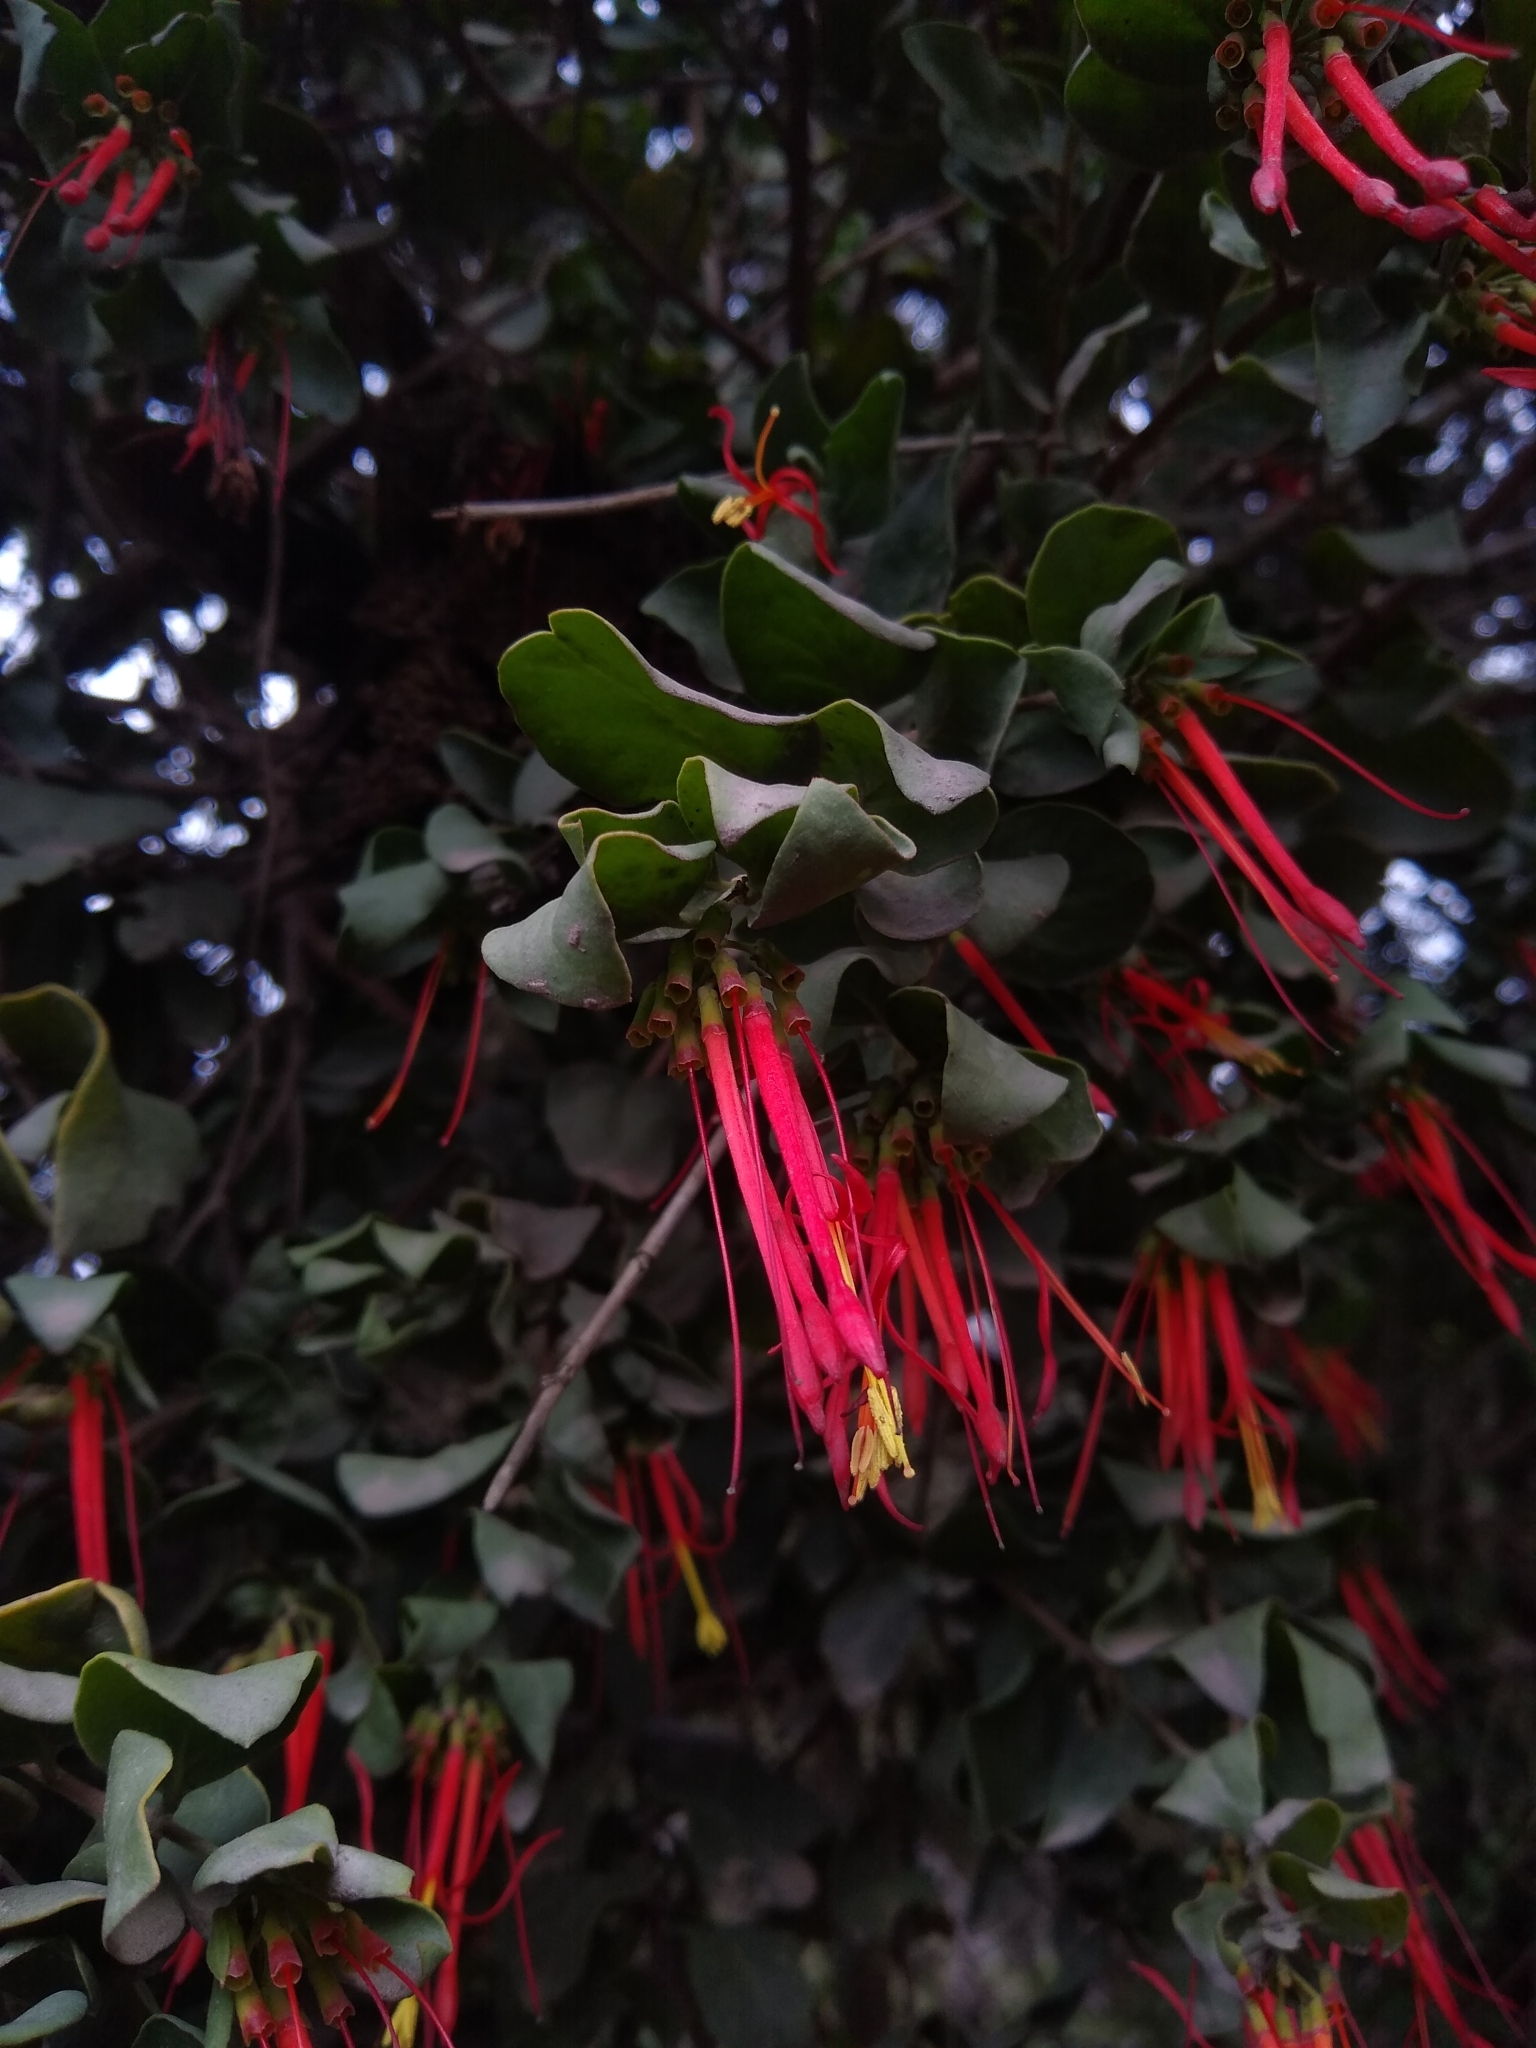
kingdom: Plantae
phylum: Tracheophyta
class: Magnoliopsida
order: Santalales
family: Loranthaceae
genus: Tristerix
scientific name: Tristerix corymbosus
